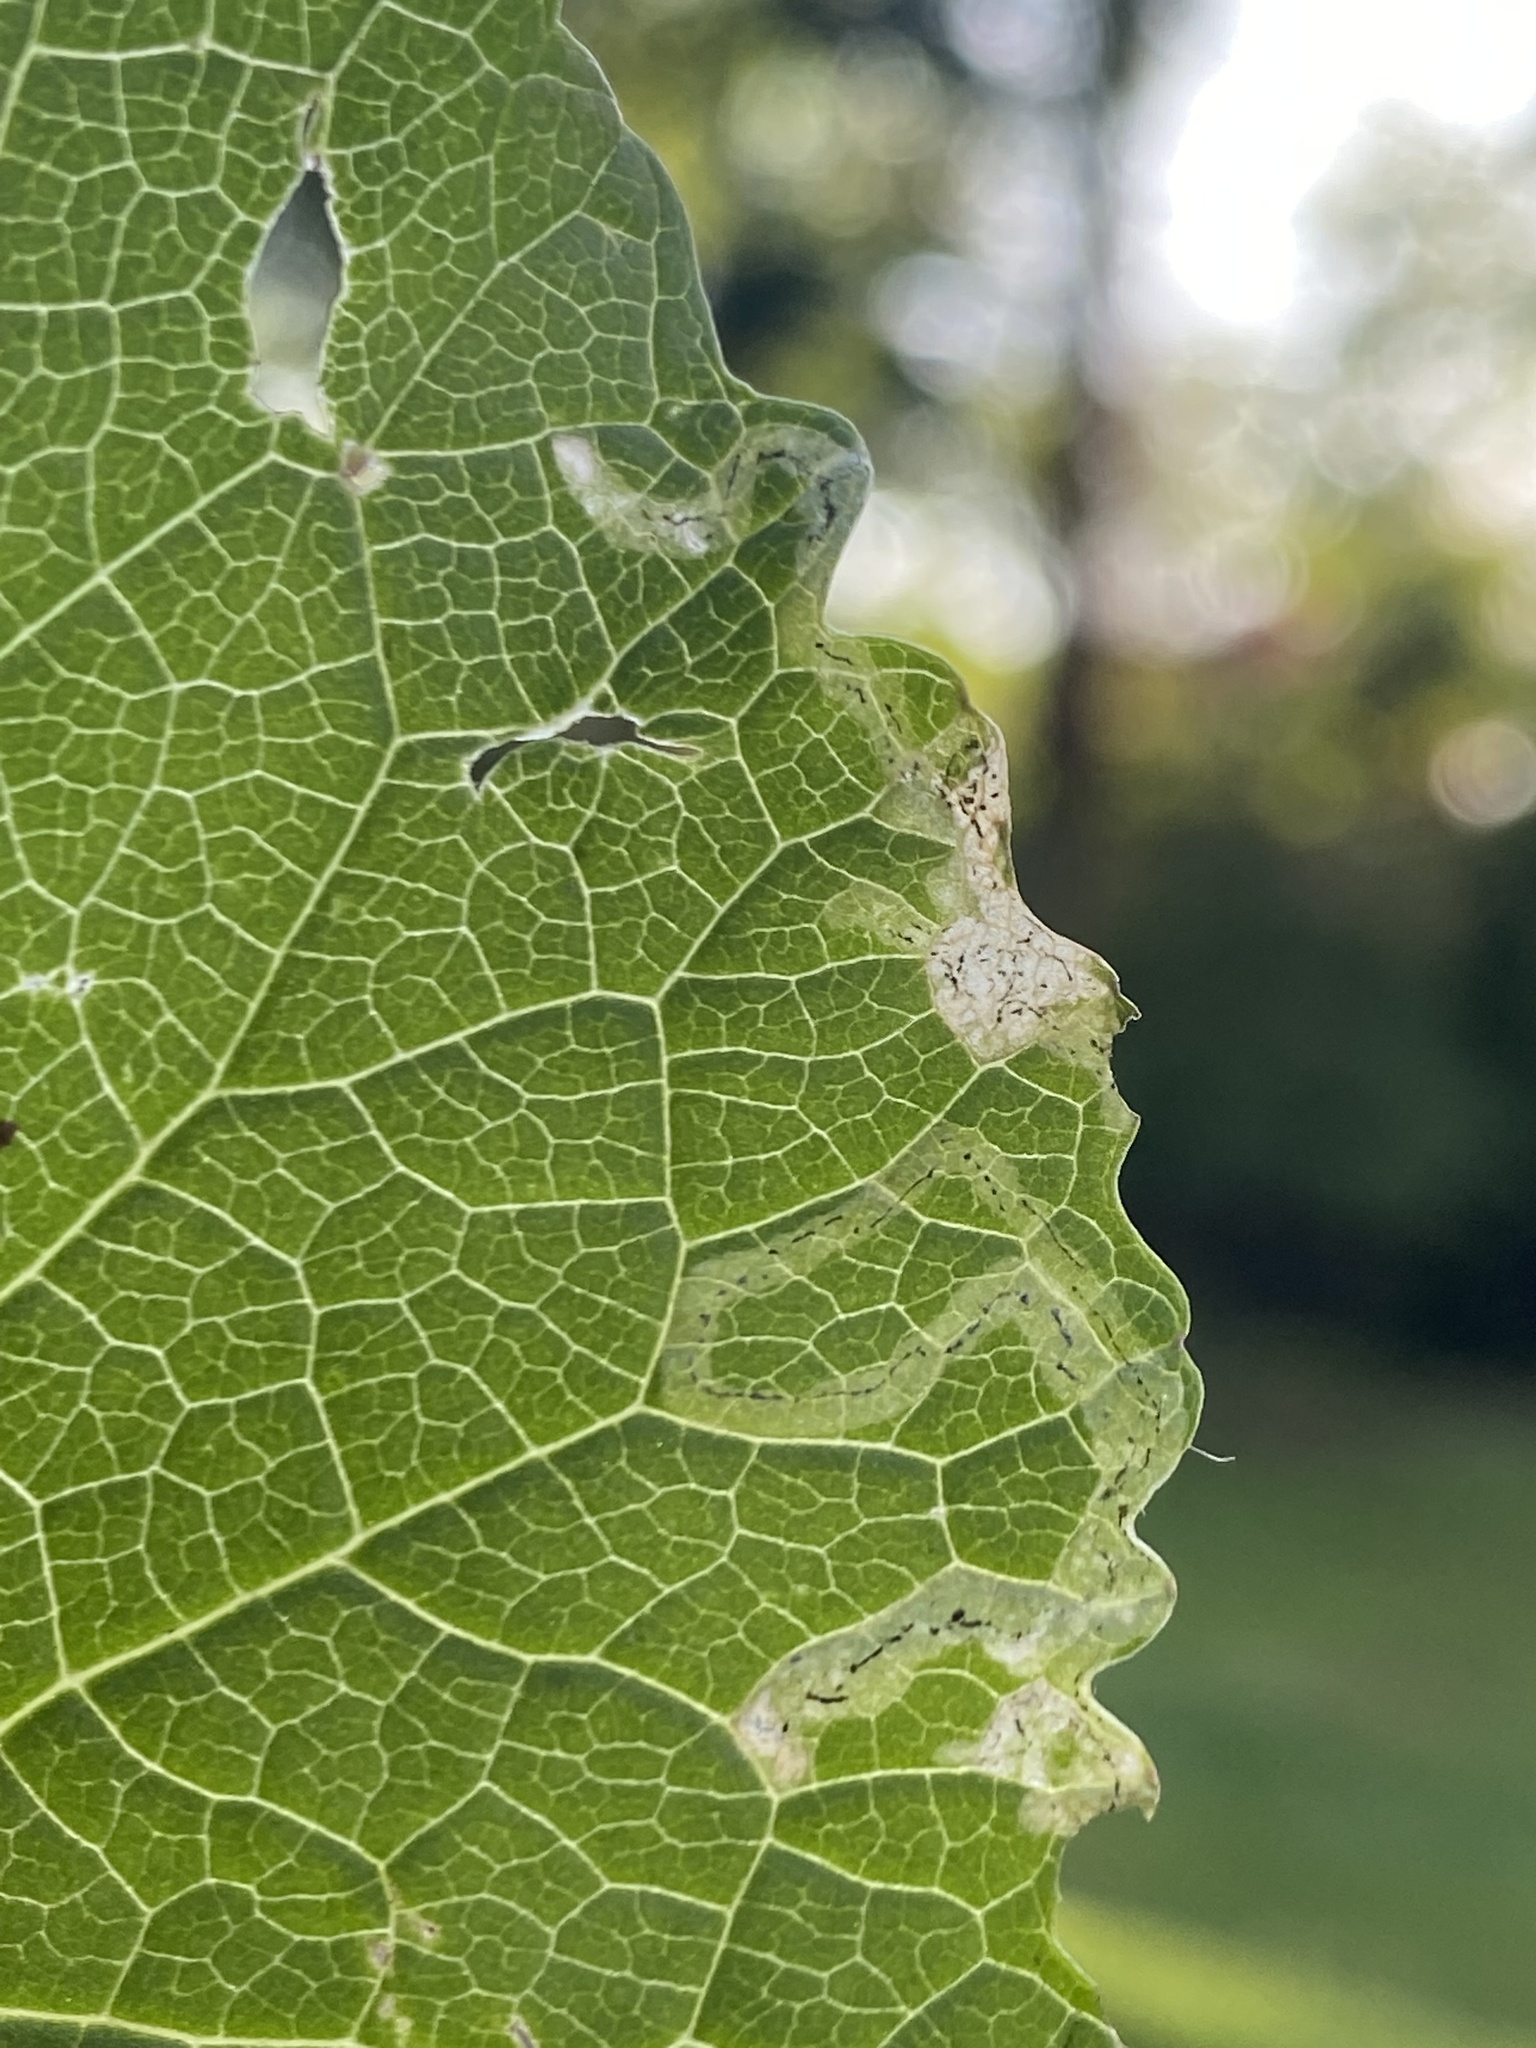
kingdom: Animalia
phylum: Arthropoda
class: Insecta
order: Diptera
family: Agromyzidae
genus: Liriomyza
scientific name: Liriomyza brassicae
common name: Serpentine leaf miner
